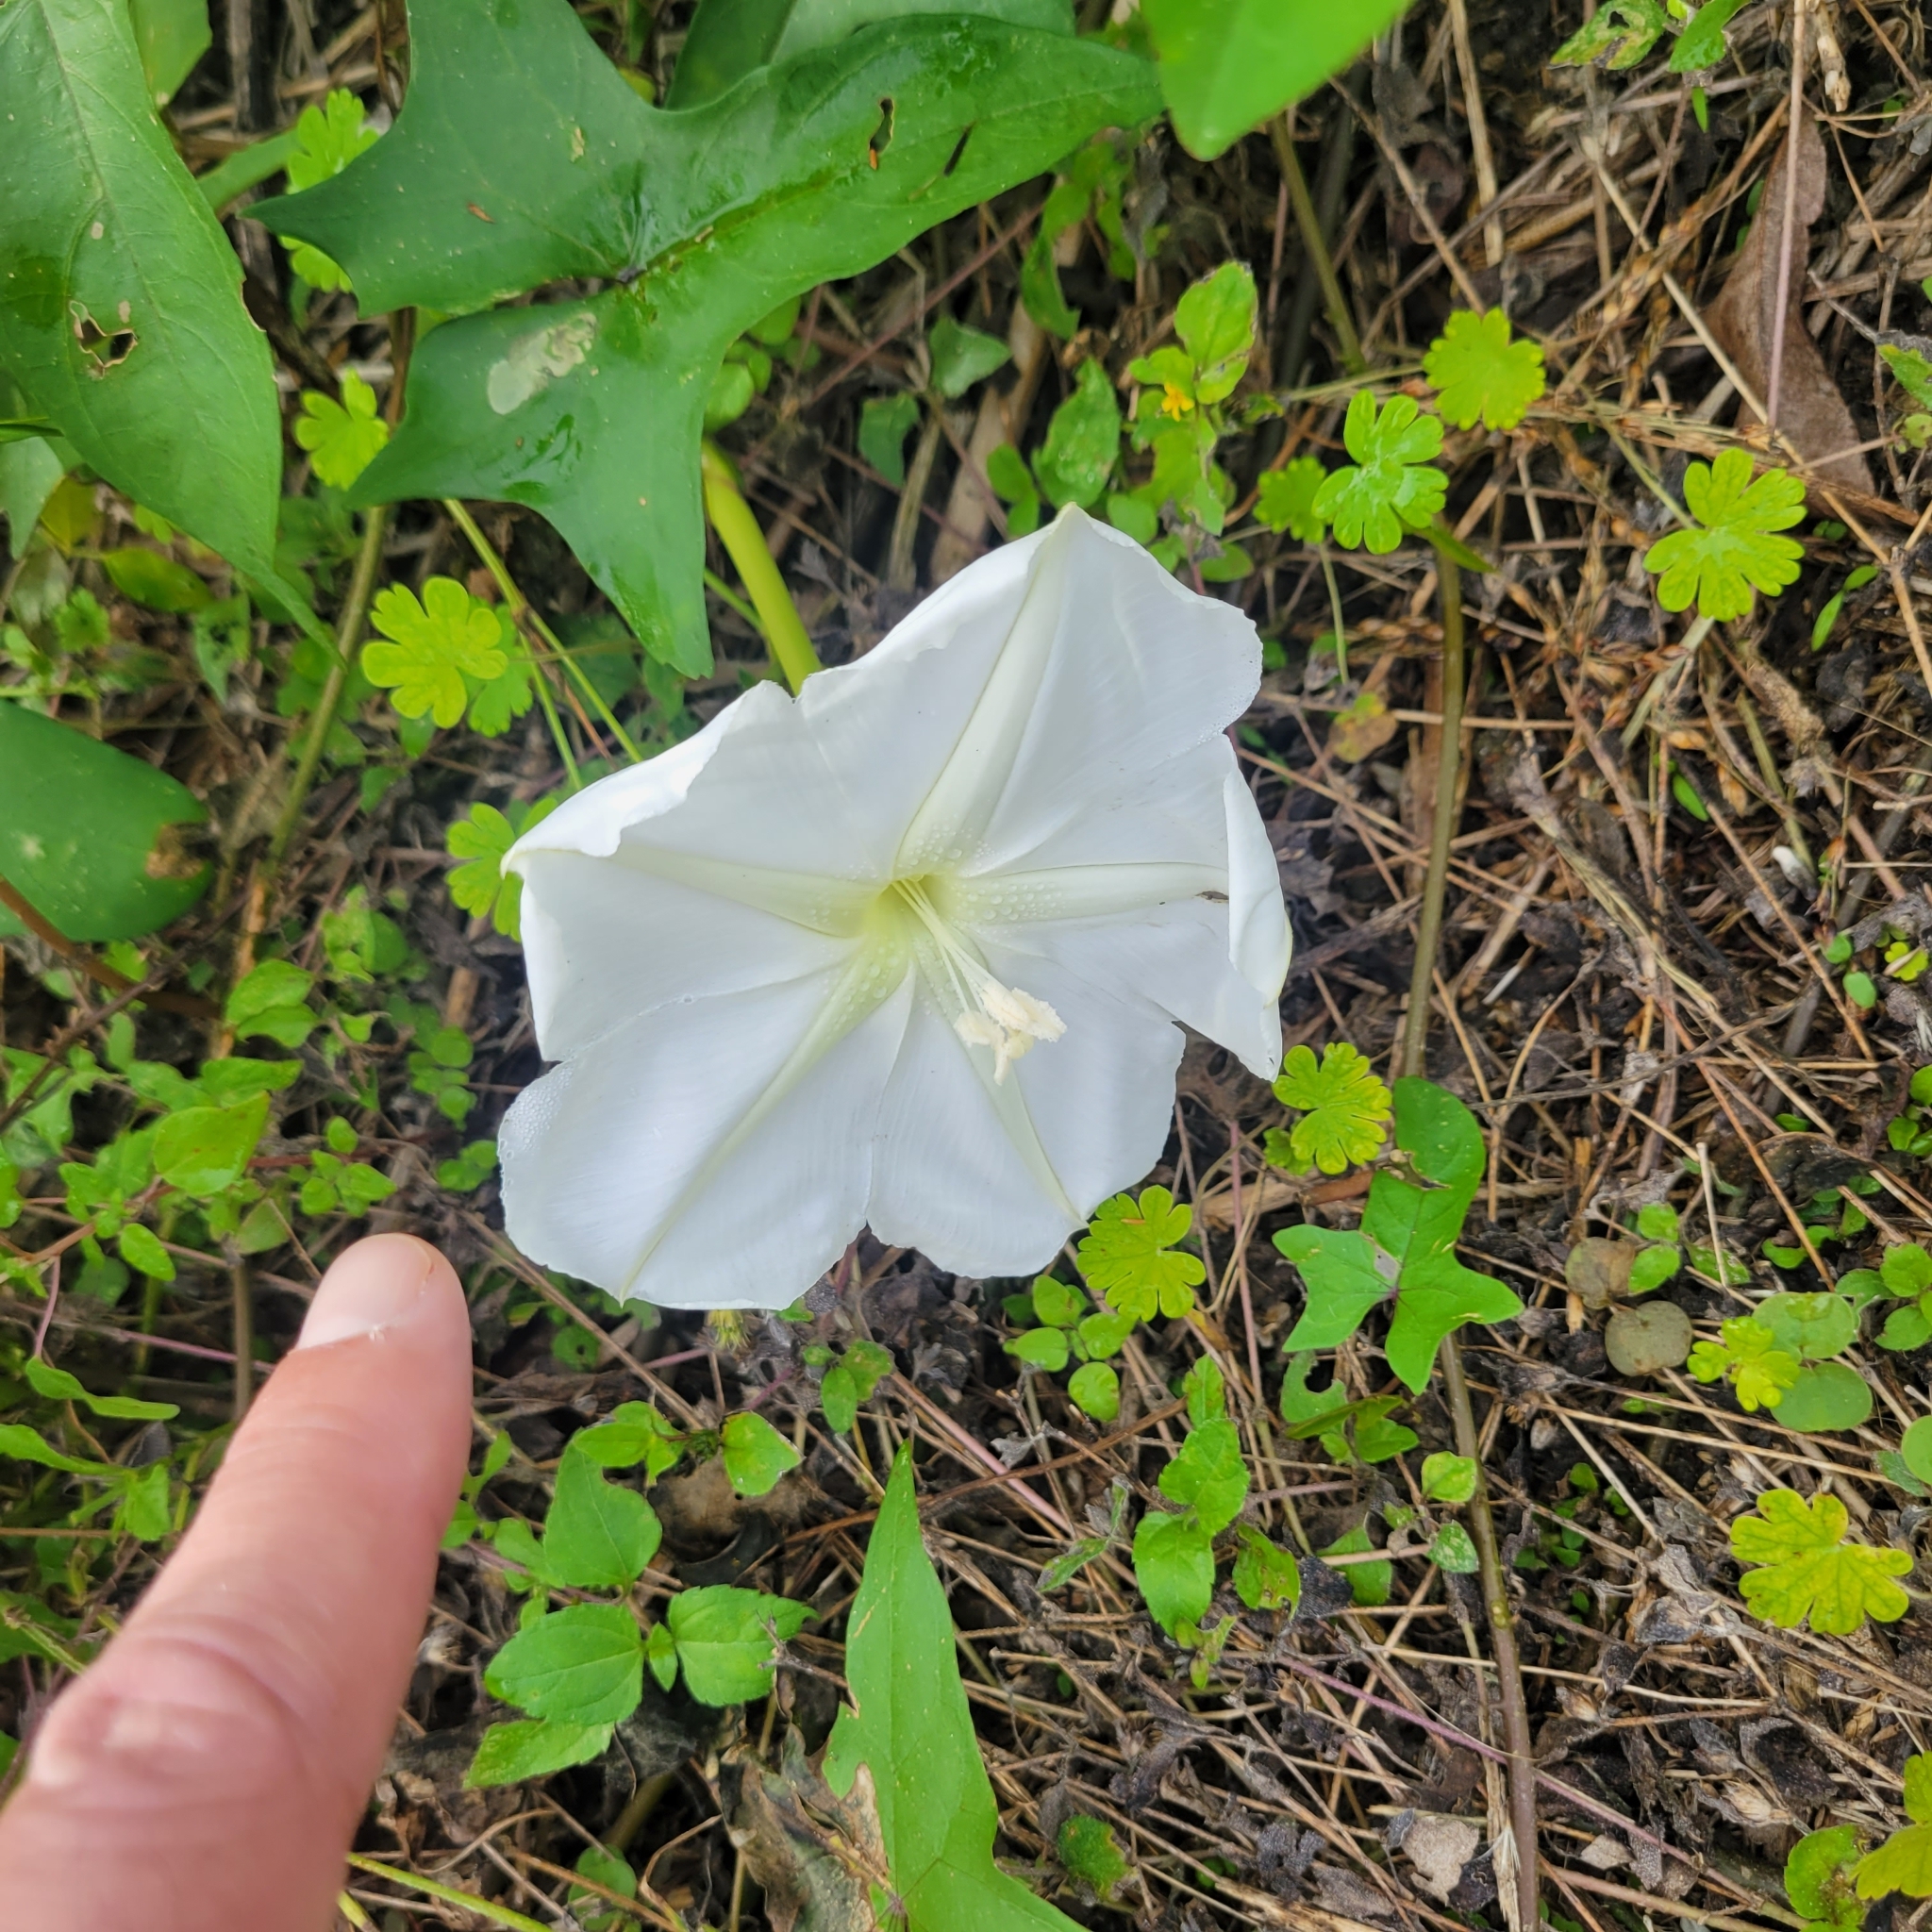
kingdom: Plantae
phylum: Tracheophyta
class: Magnoliopsida
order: Solanales
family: Convolvulaceae
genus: Ipomoea
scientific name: Ipomoea alba
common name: Moonflower
